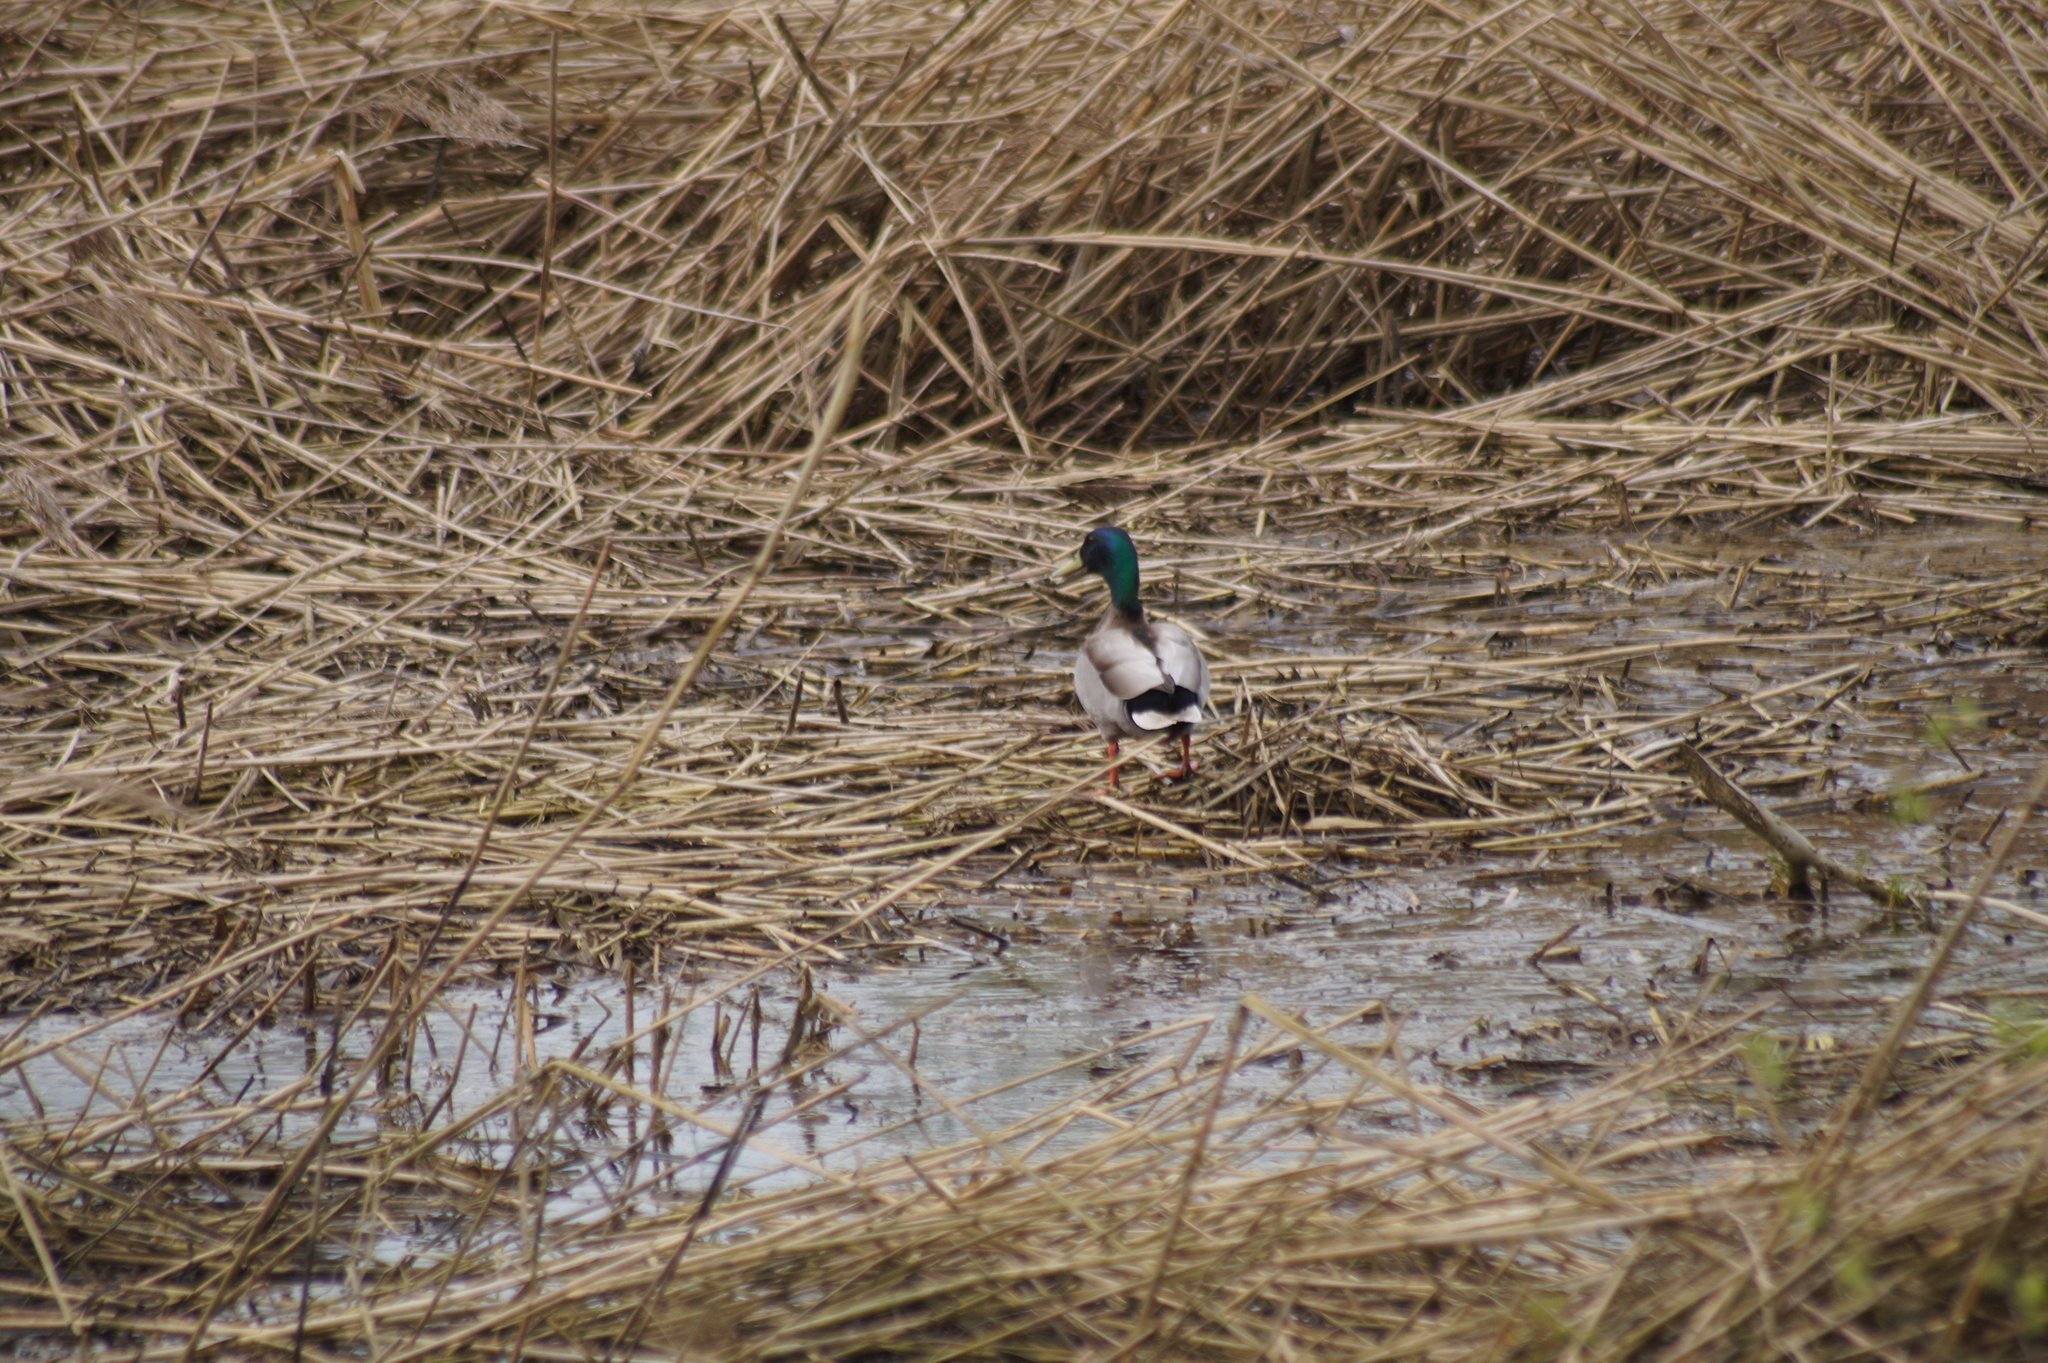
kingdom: Animalia
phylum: Chordata
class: Aves
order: Anseriformes
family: Anatidae
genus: Anas
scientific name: Anas platyrhynchos
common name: Mallard
